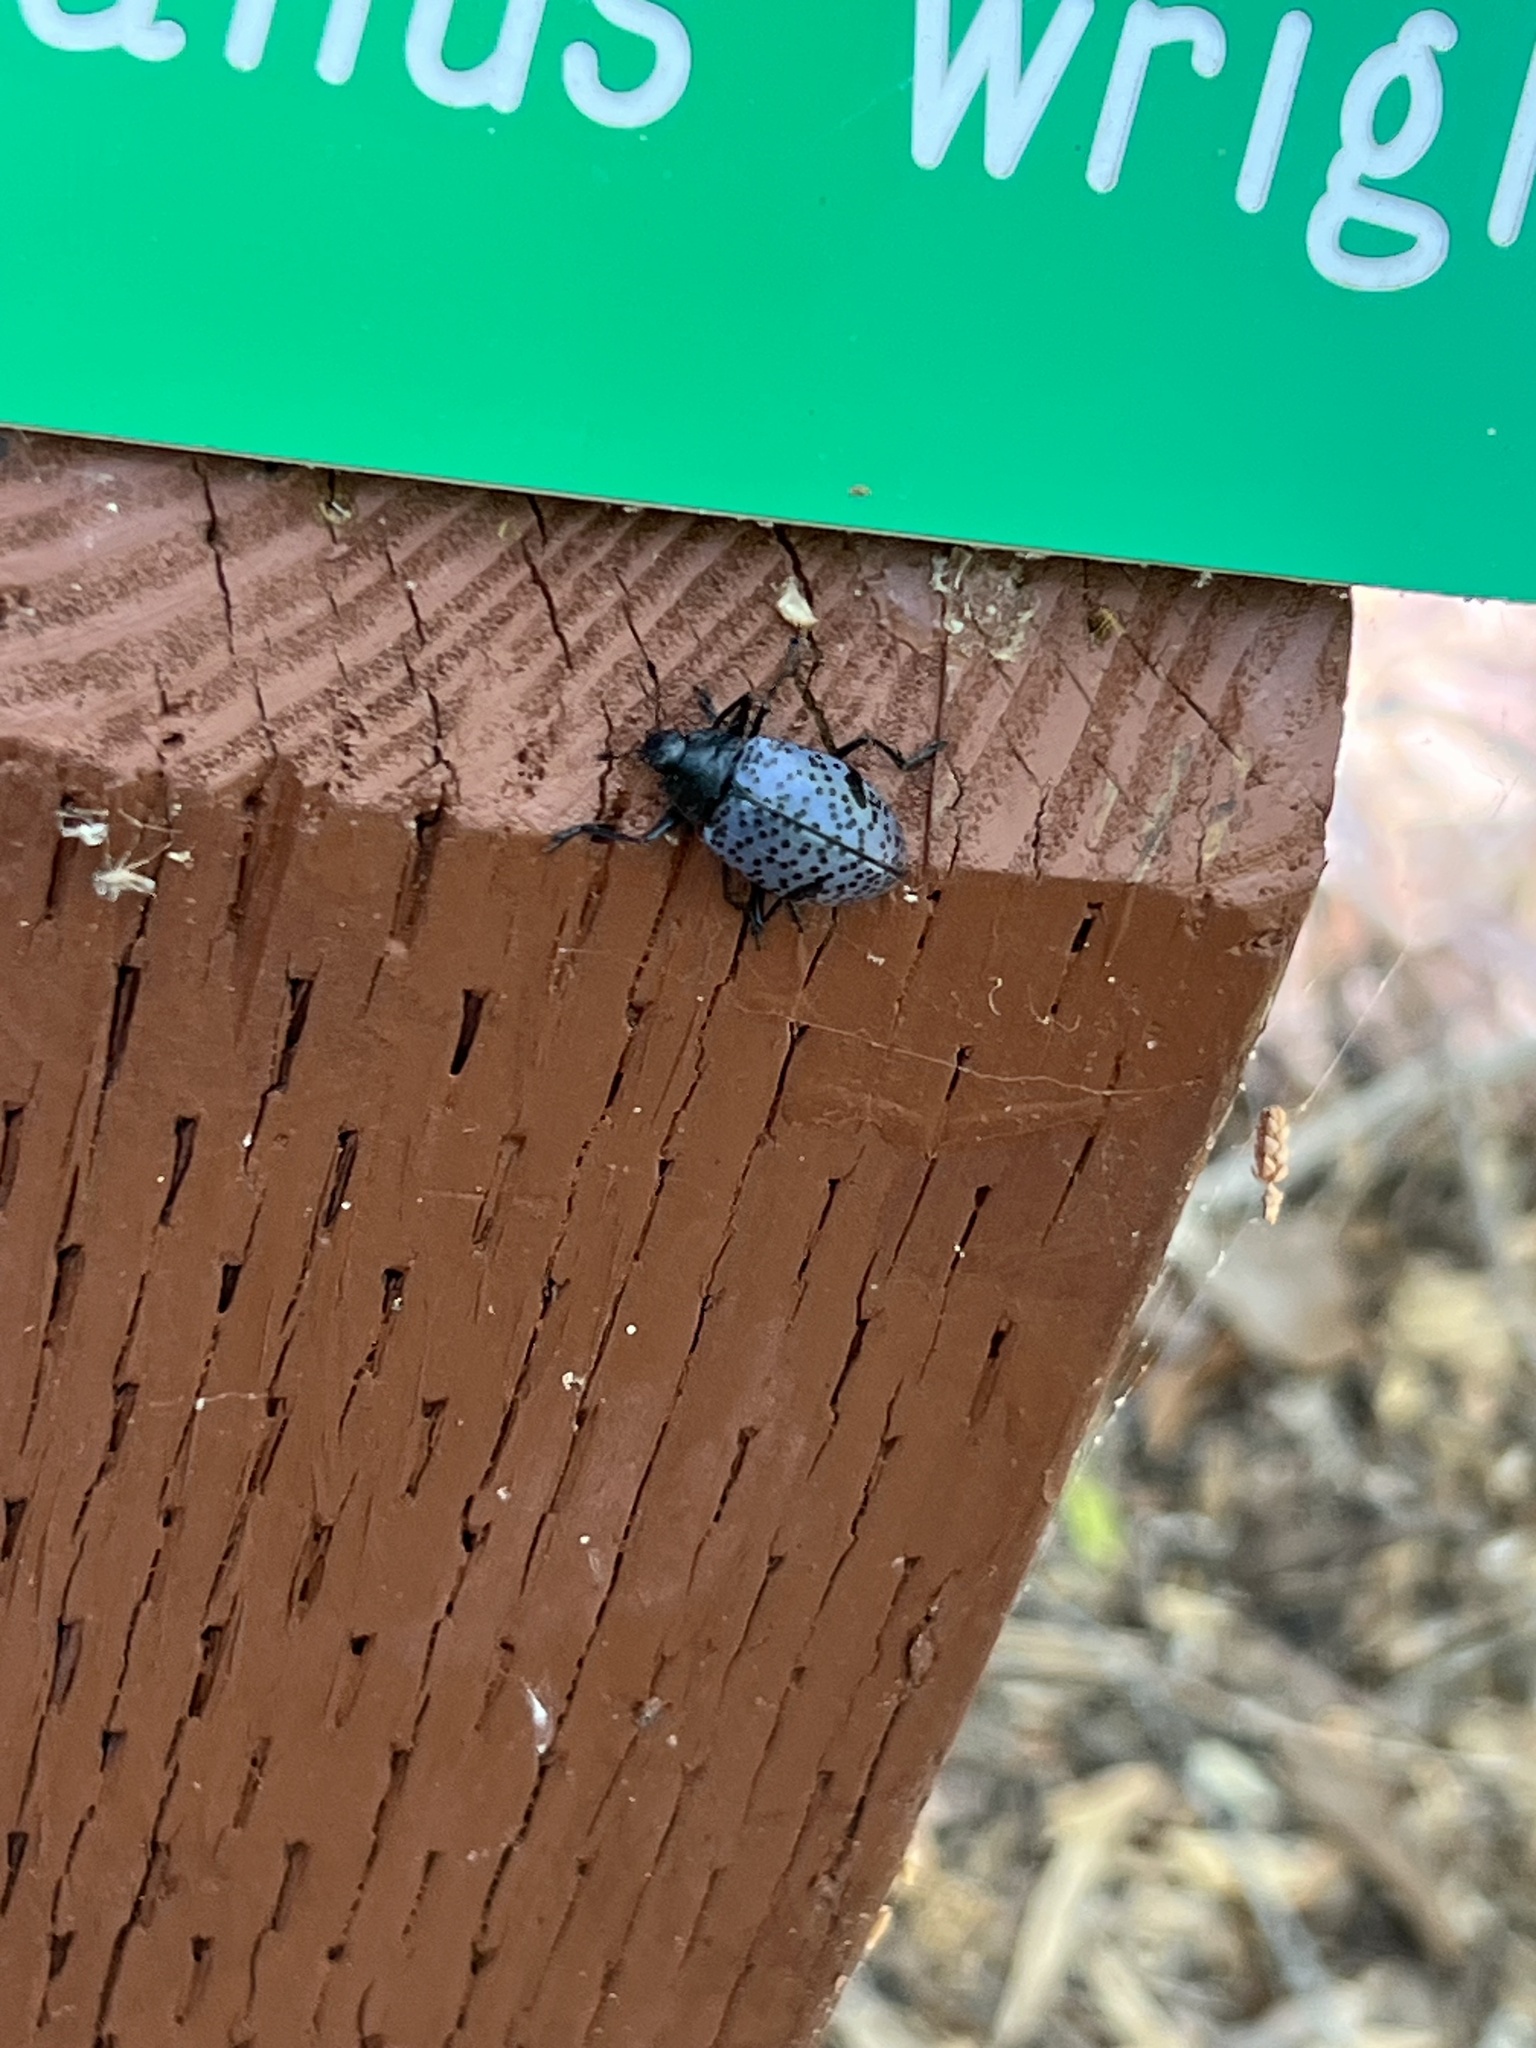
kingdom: Animalia
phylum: Arthropoda
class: Insecta
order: Coleoptera
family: Erotylidae
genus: Gibbifer
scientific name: Gibbifer californicus
